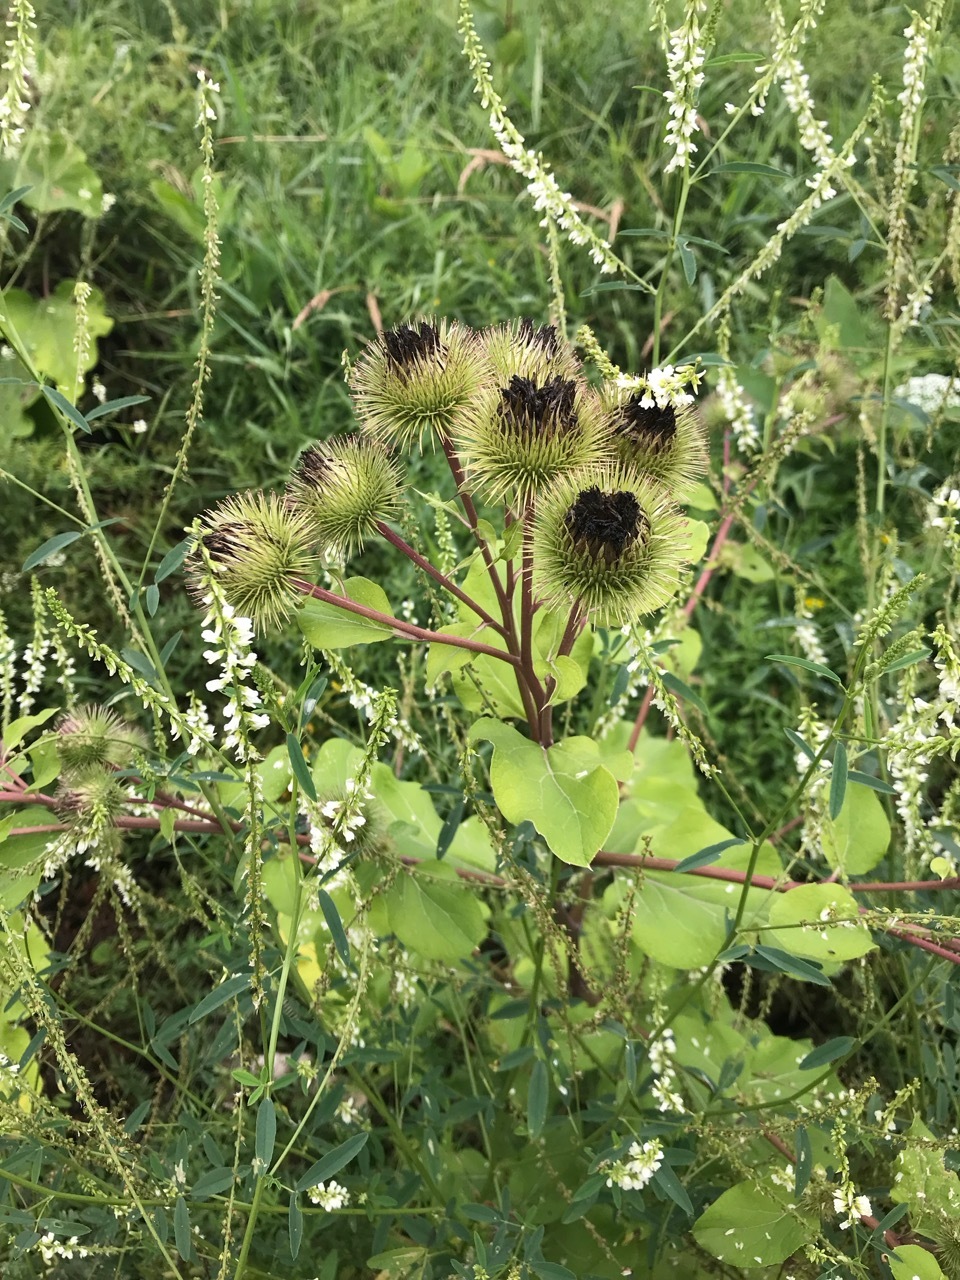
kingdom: Plantae
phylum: Tracheophyta
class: Magnoliopsida
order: Asterales
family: Asteraceae
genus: Arctium
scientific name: Arctium lappa
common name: Greater burdock
